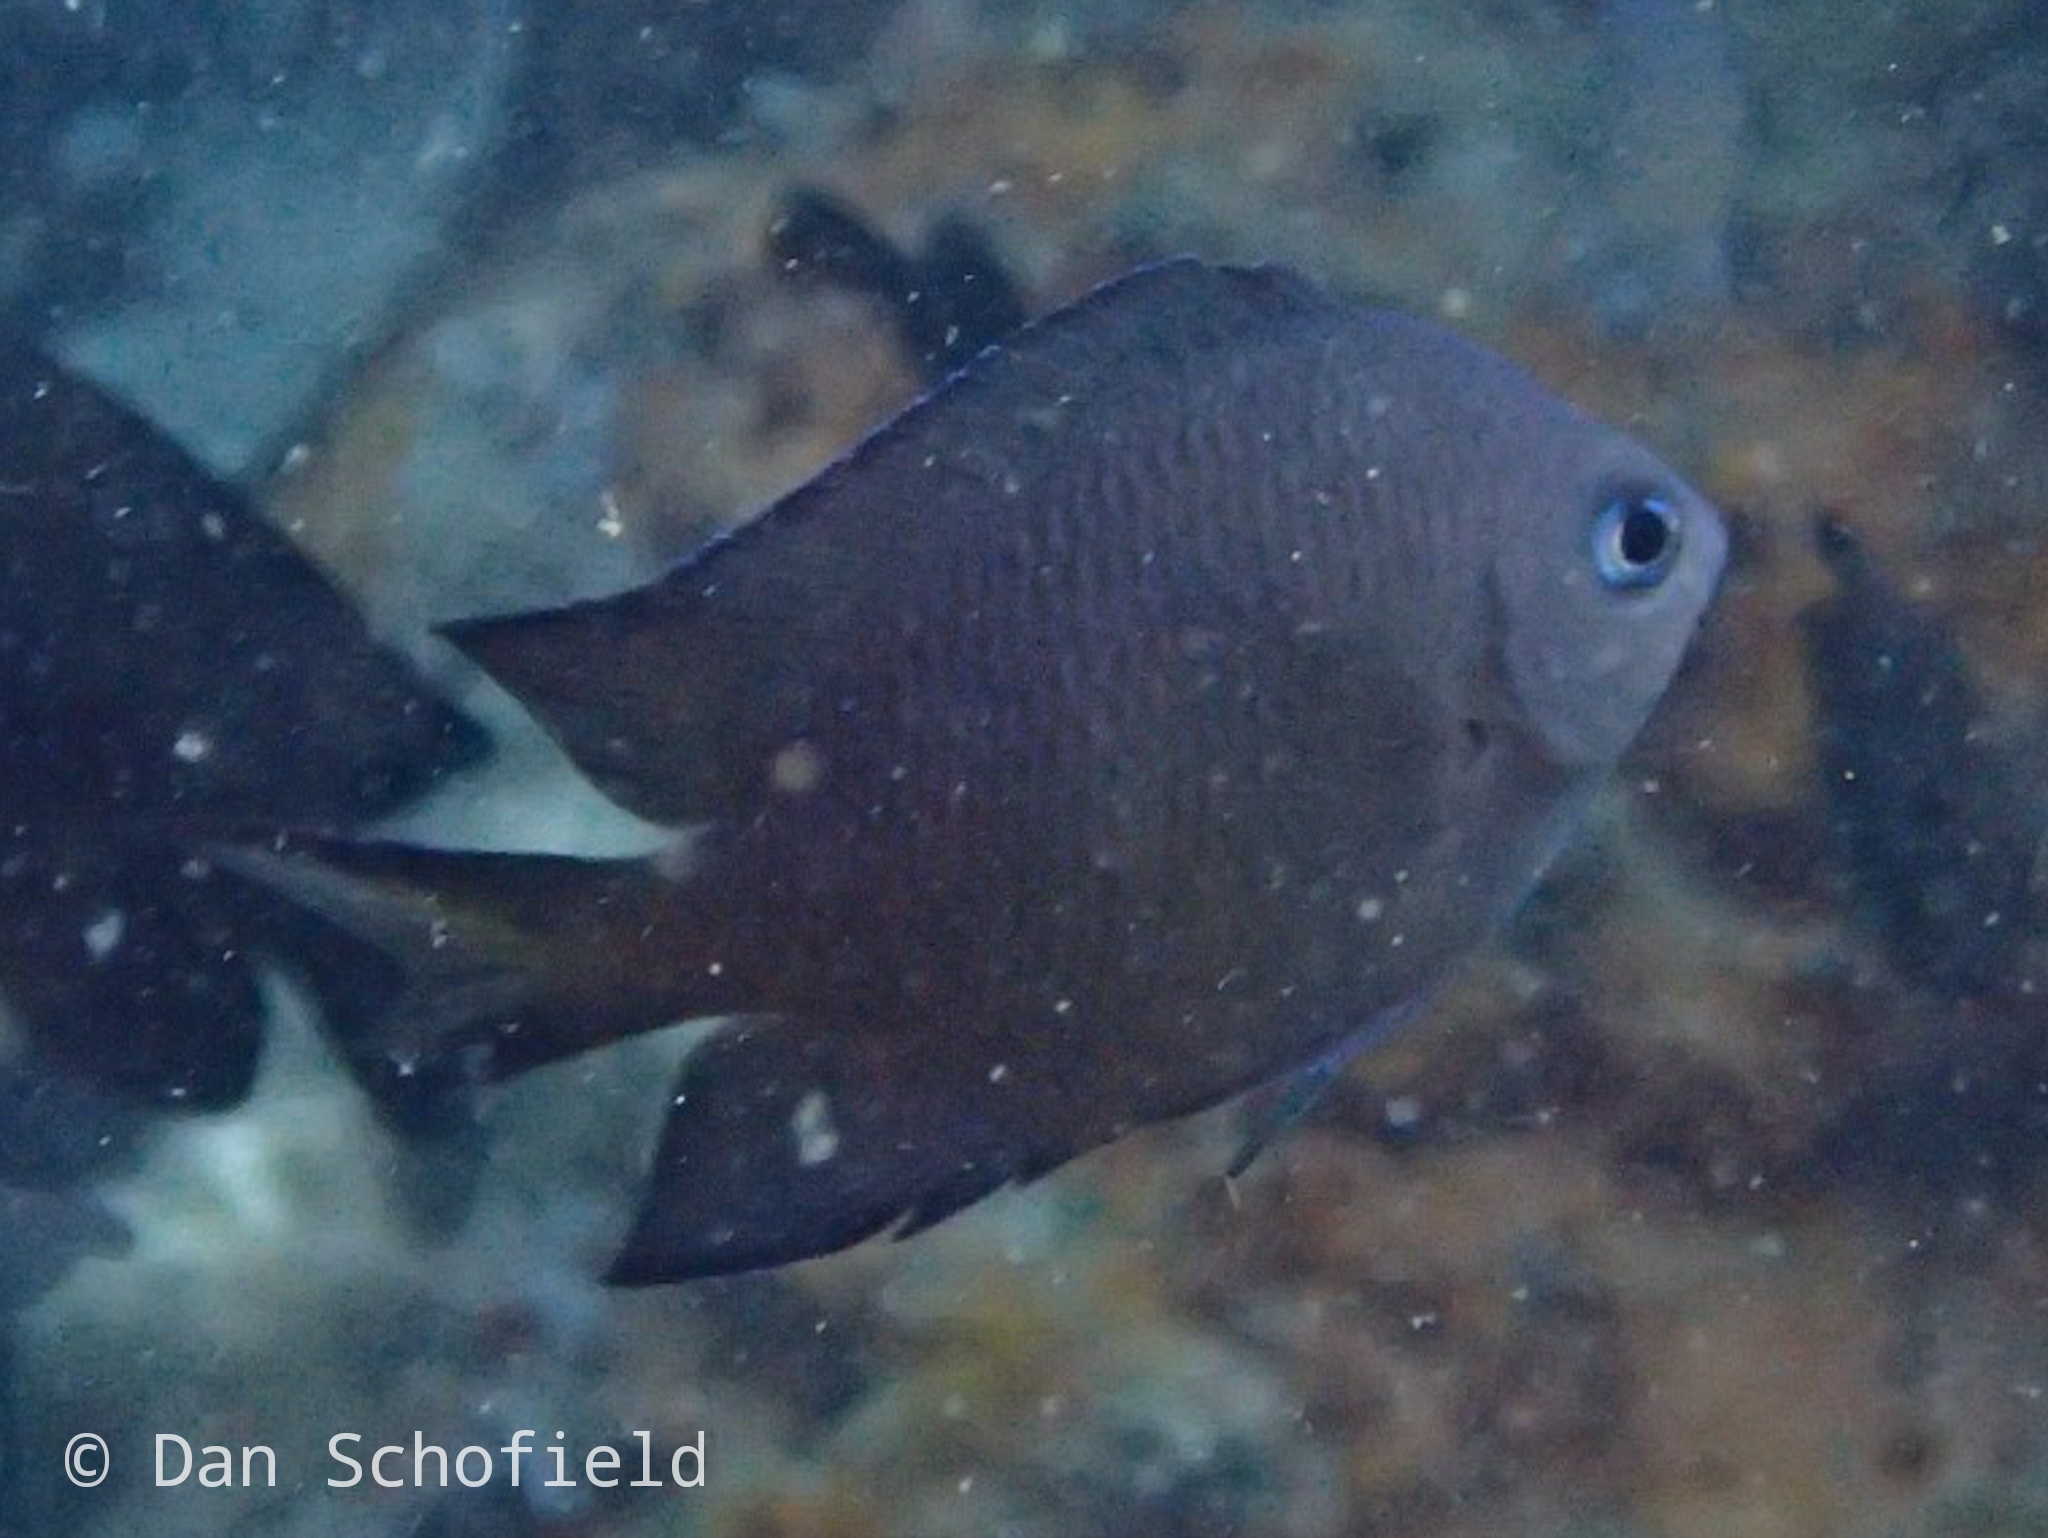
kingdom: Animalia
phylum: Chordata
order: Perciformes
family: Pomacentridae
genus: Acanthochromis
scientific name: Acanthochromis polyacanthus
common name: Spiny chromis
